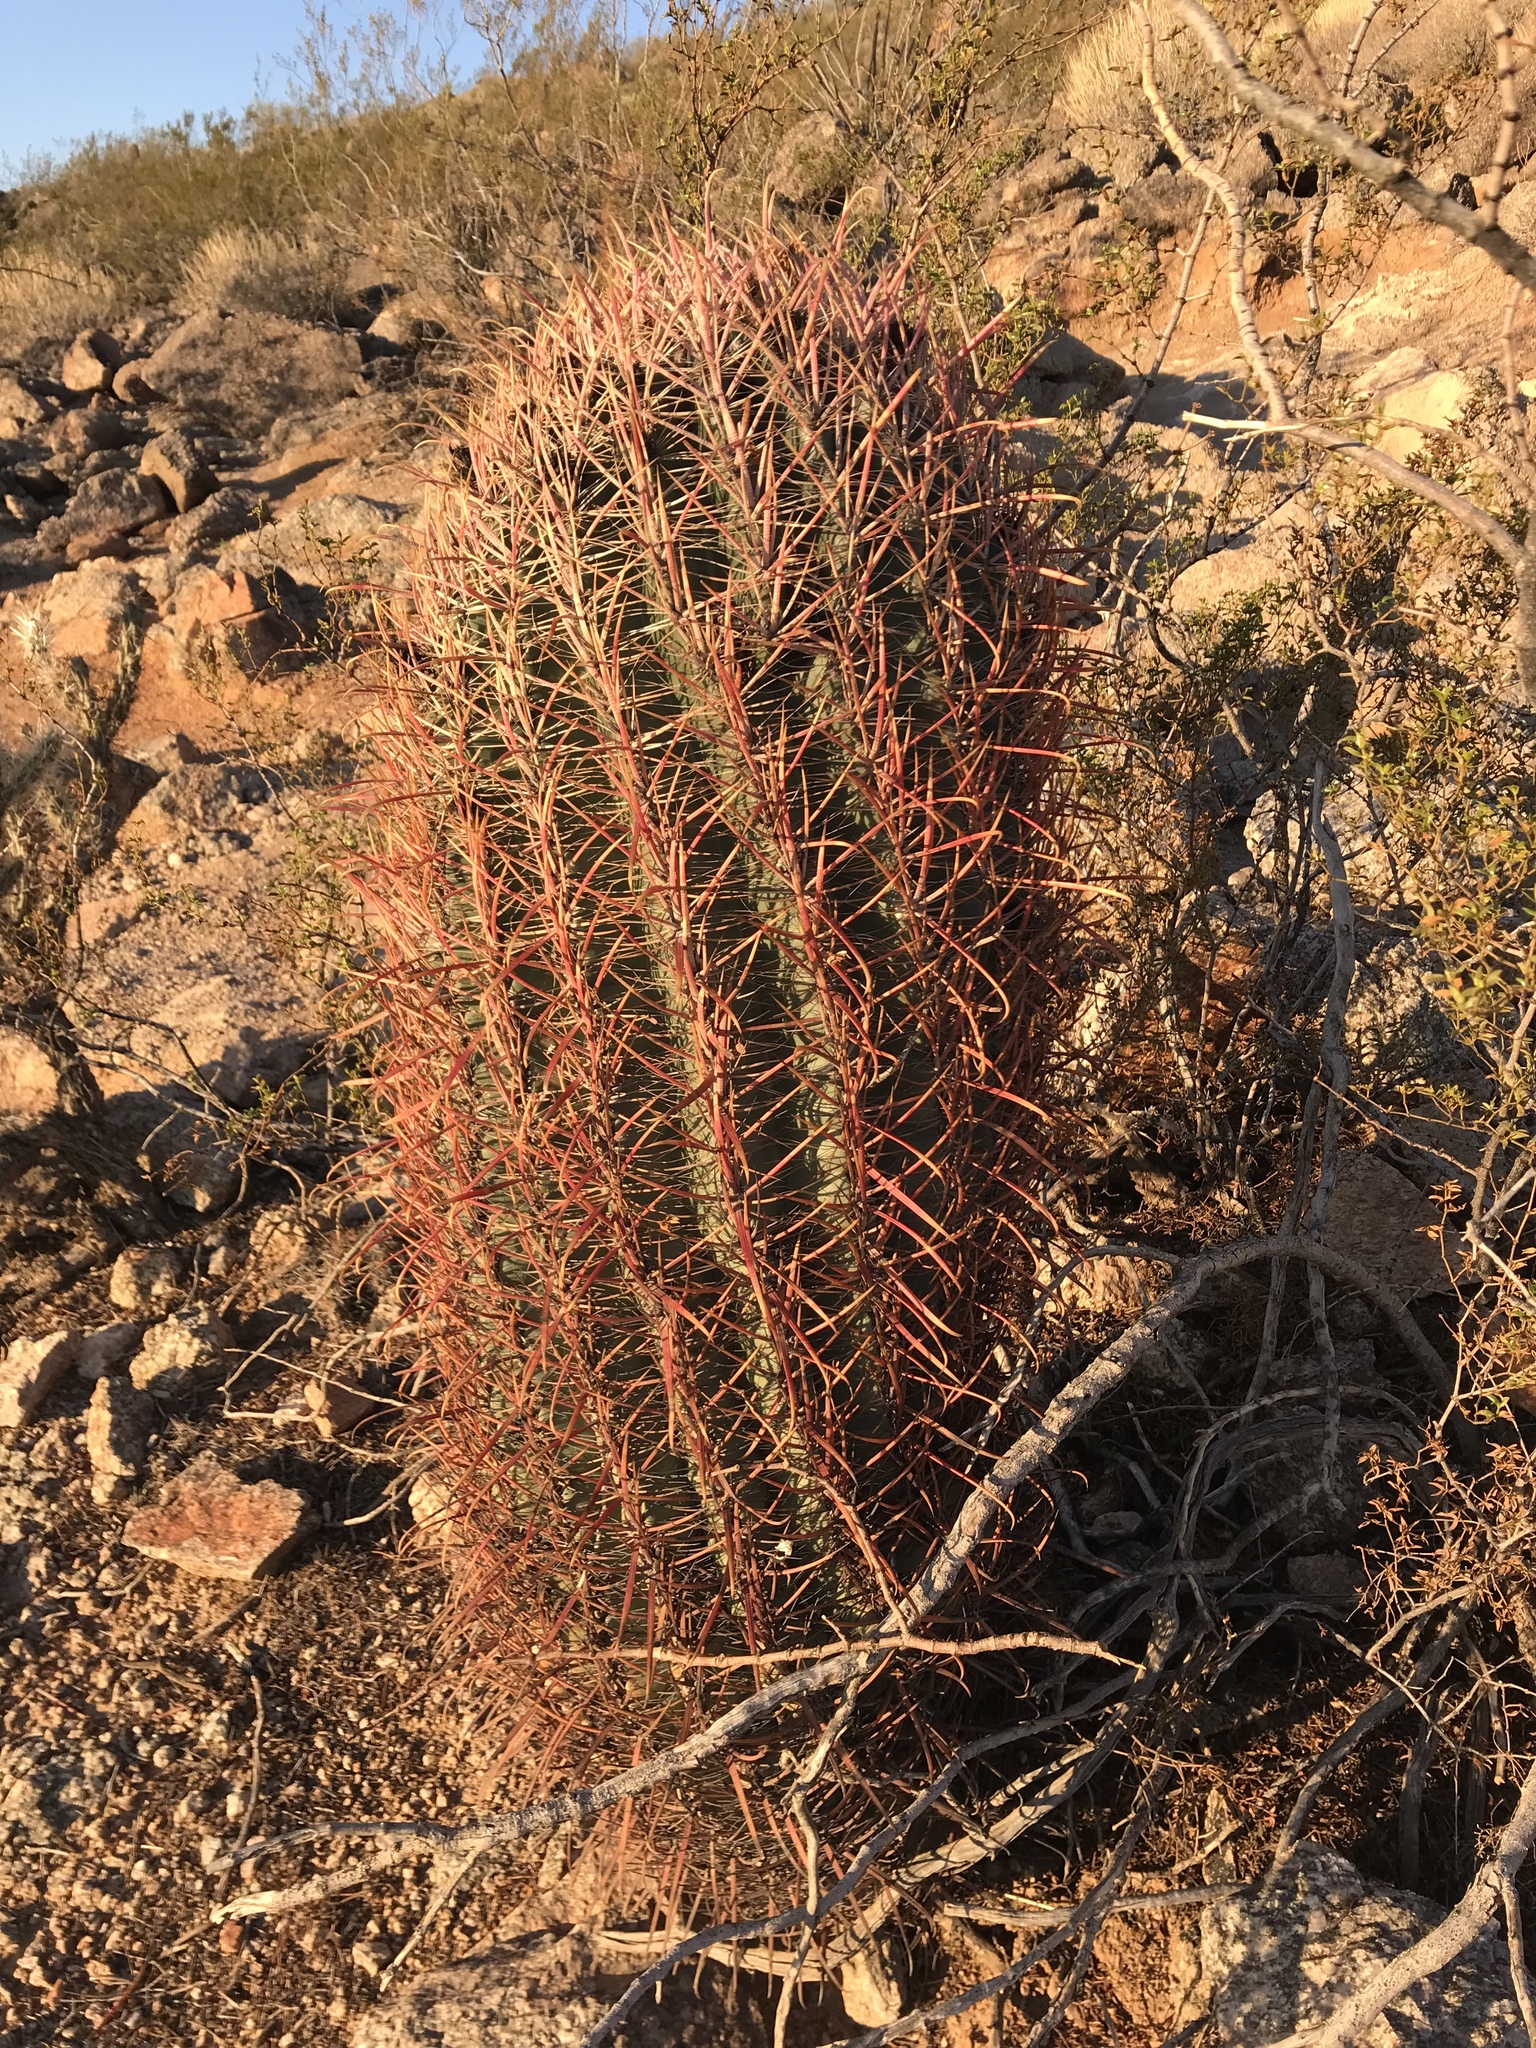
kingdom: Plantae
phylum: Tracheophyta
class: Magnoliopsida
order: Caryophyllales
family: Cactaceae
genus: Ferocactus
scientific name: Ferocactus wislizeni
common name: Candy barrel cactus
